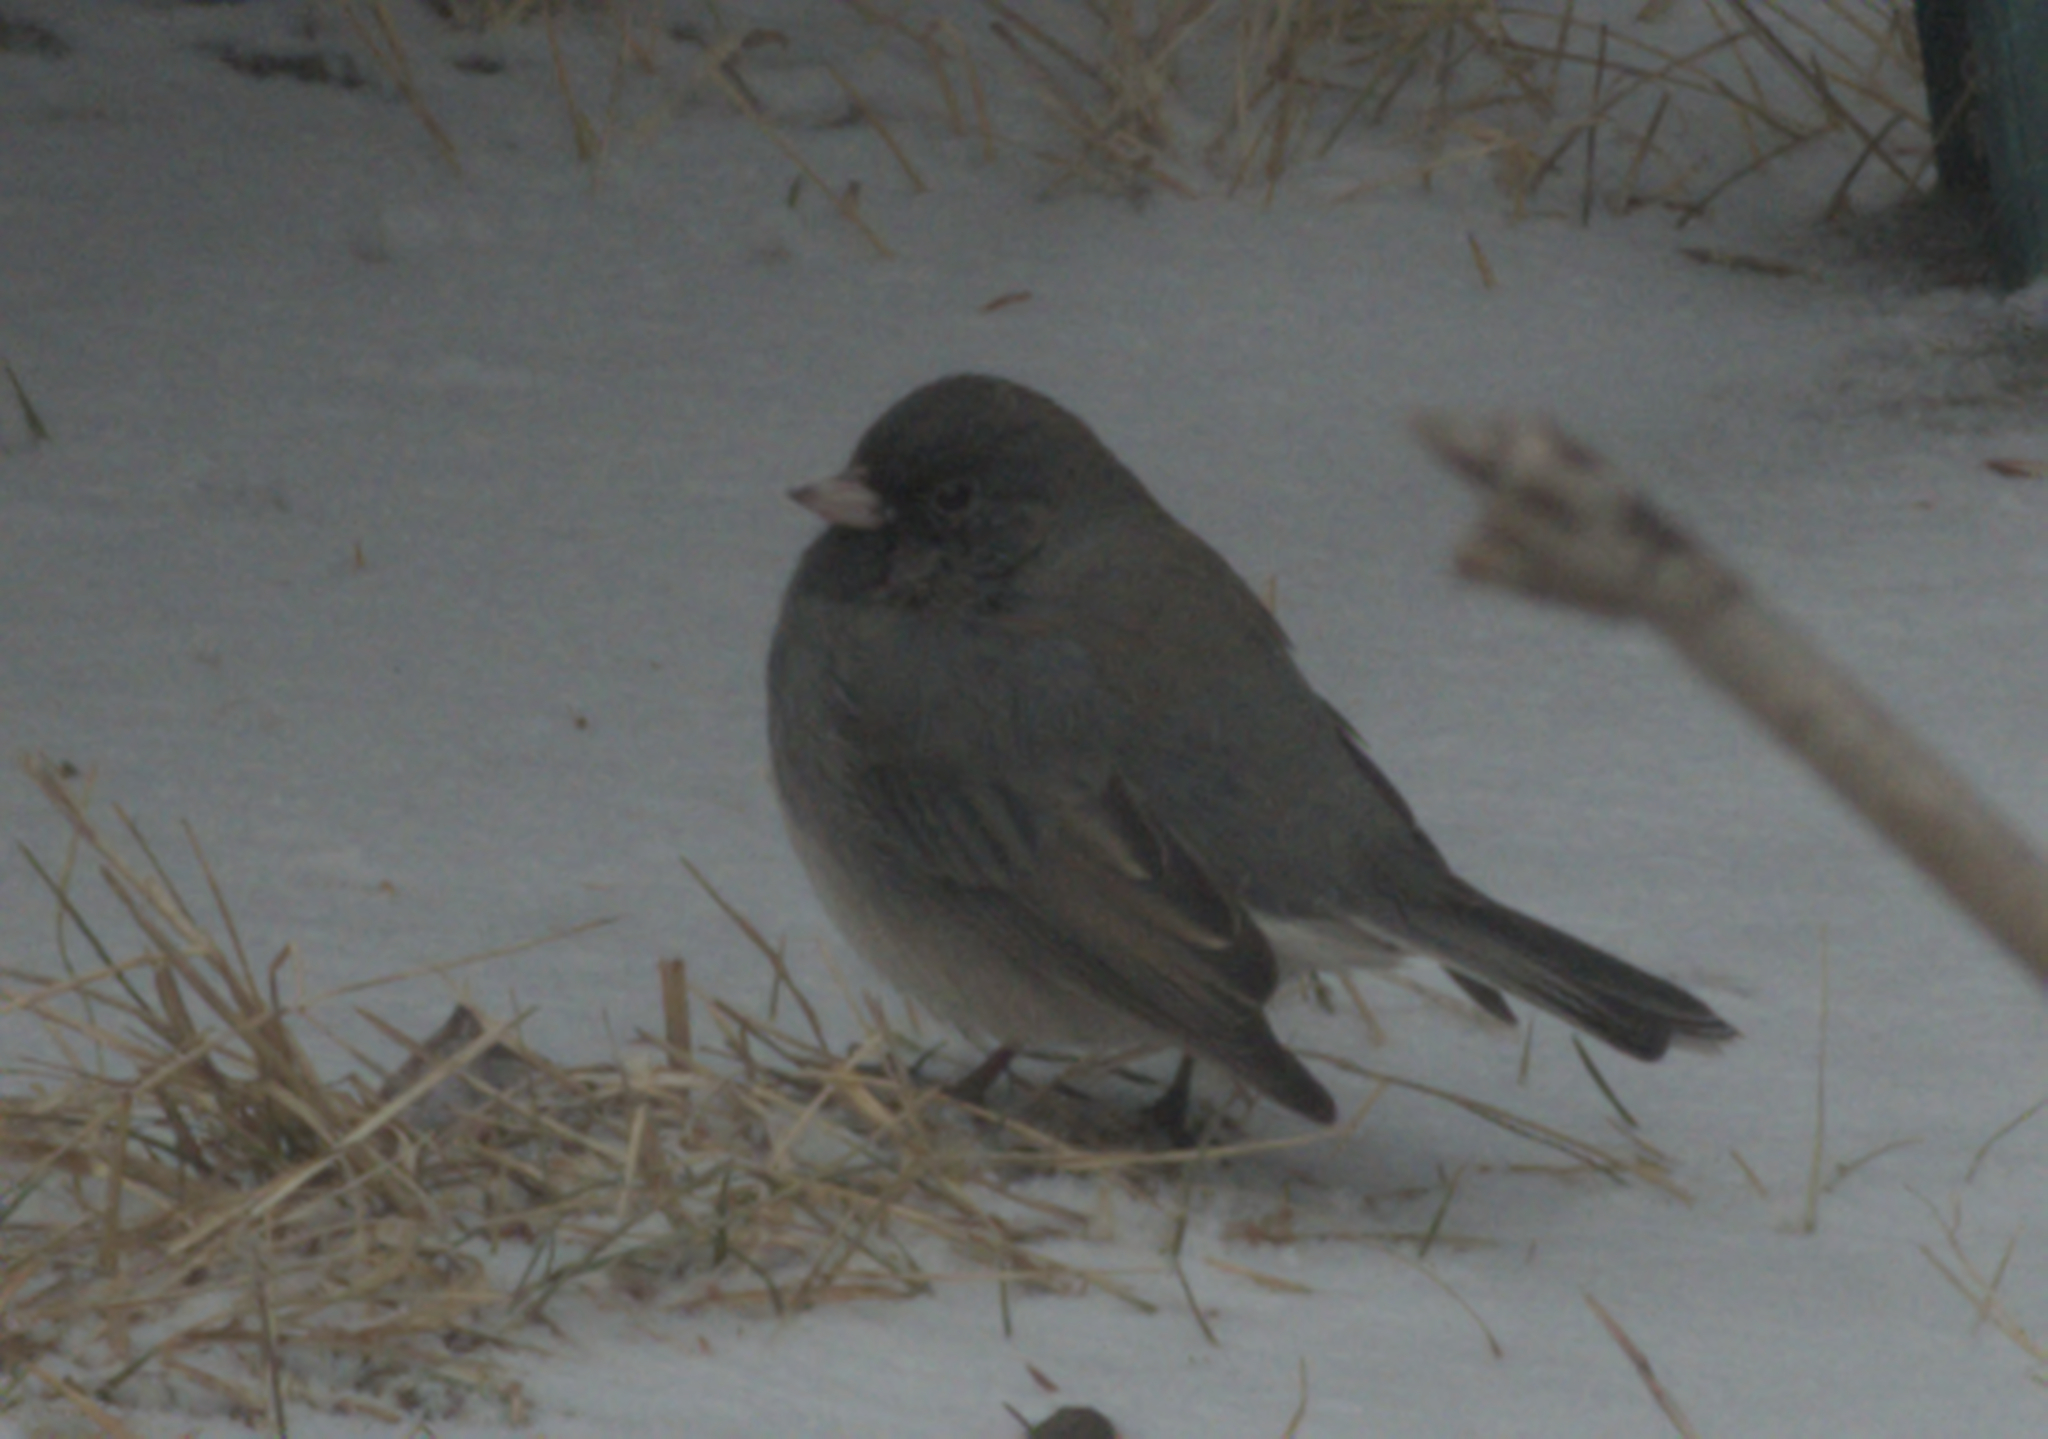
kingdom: Animalia
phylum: Chordata
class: Aves
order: Passeriformes
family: Passerellidae
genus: Junco
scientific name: Junco hyemalis
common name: Dark-eyed junco
